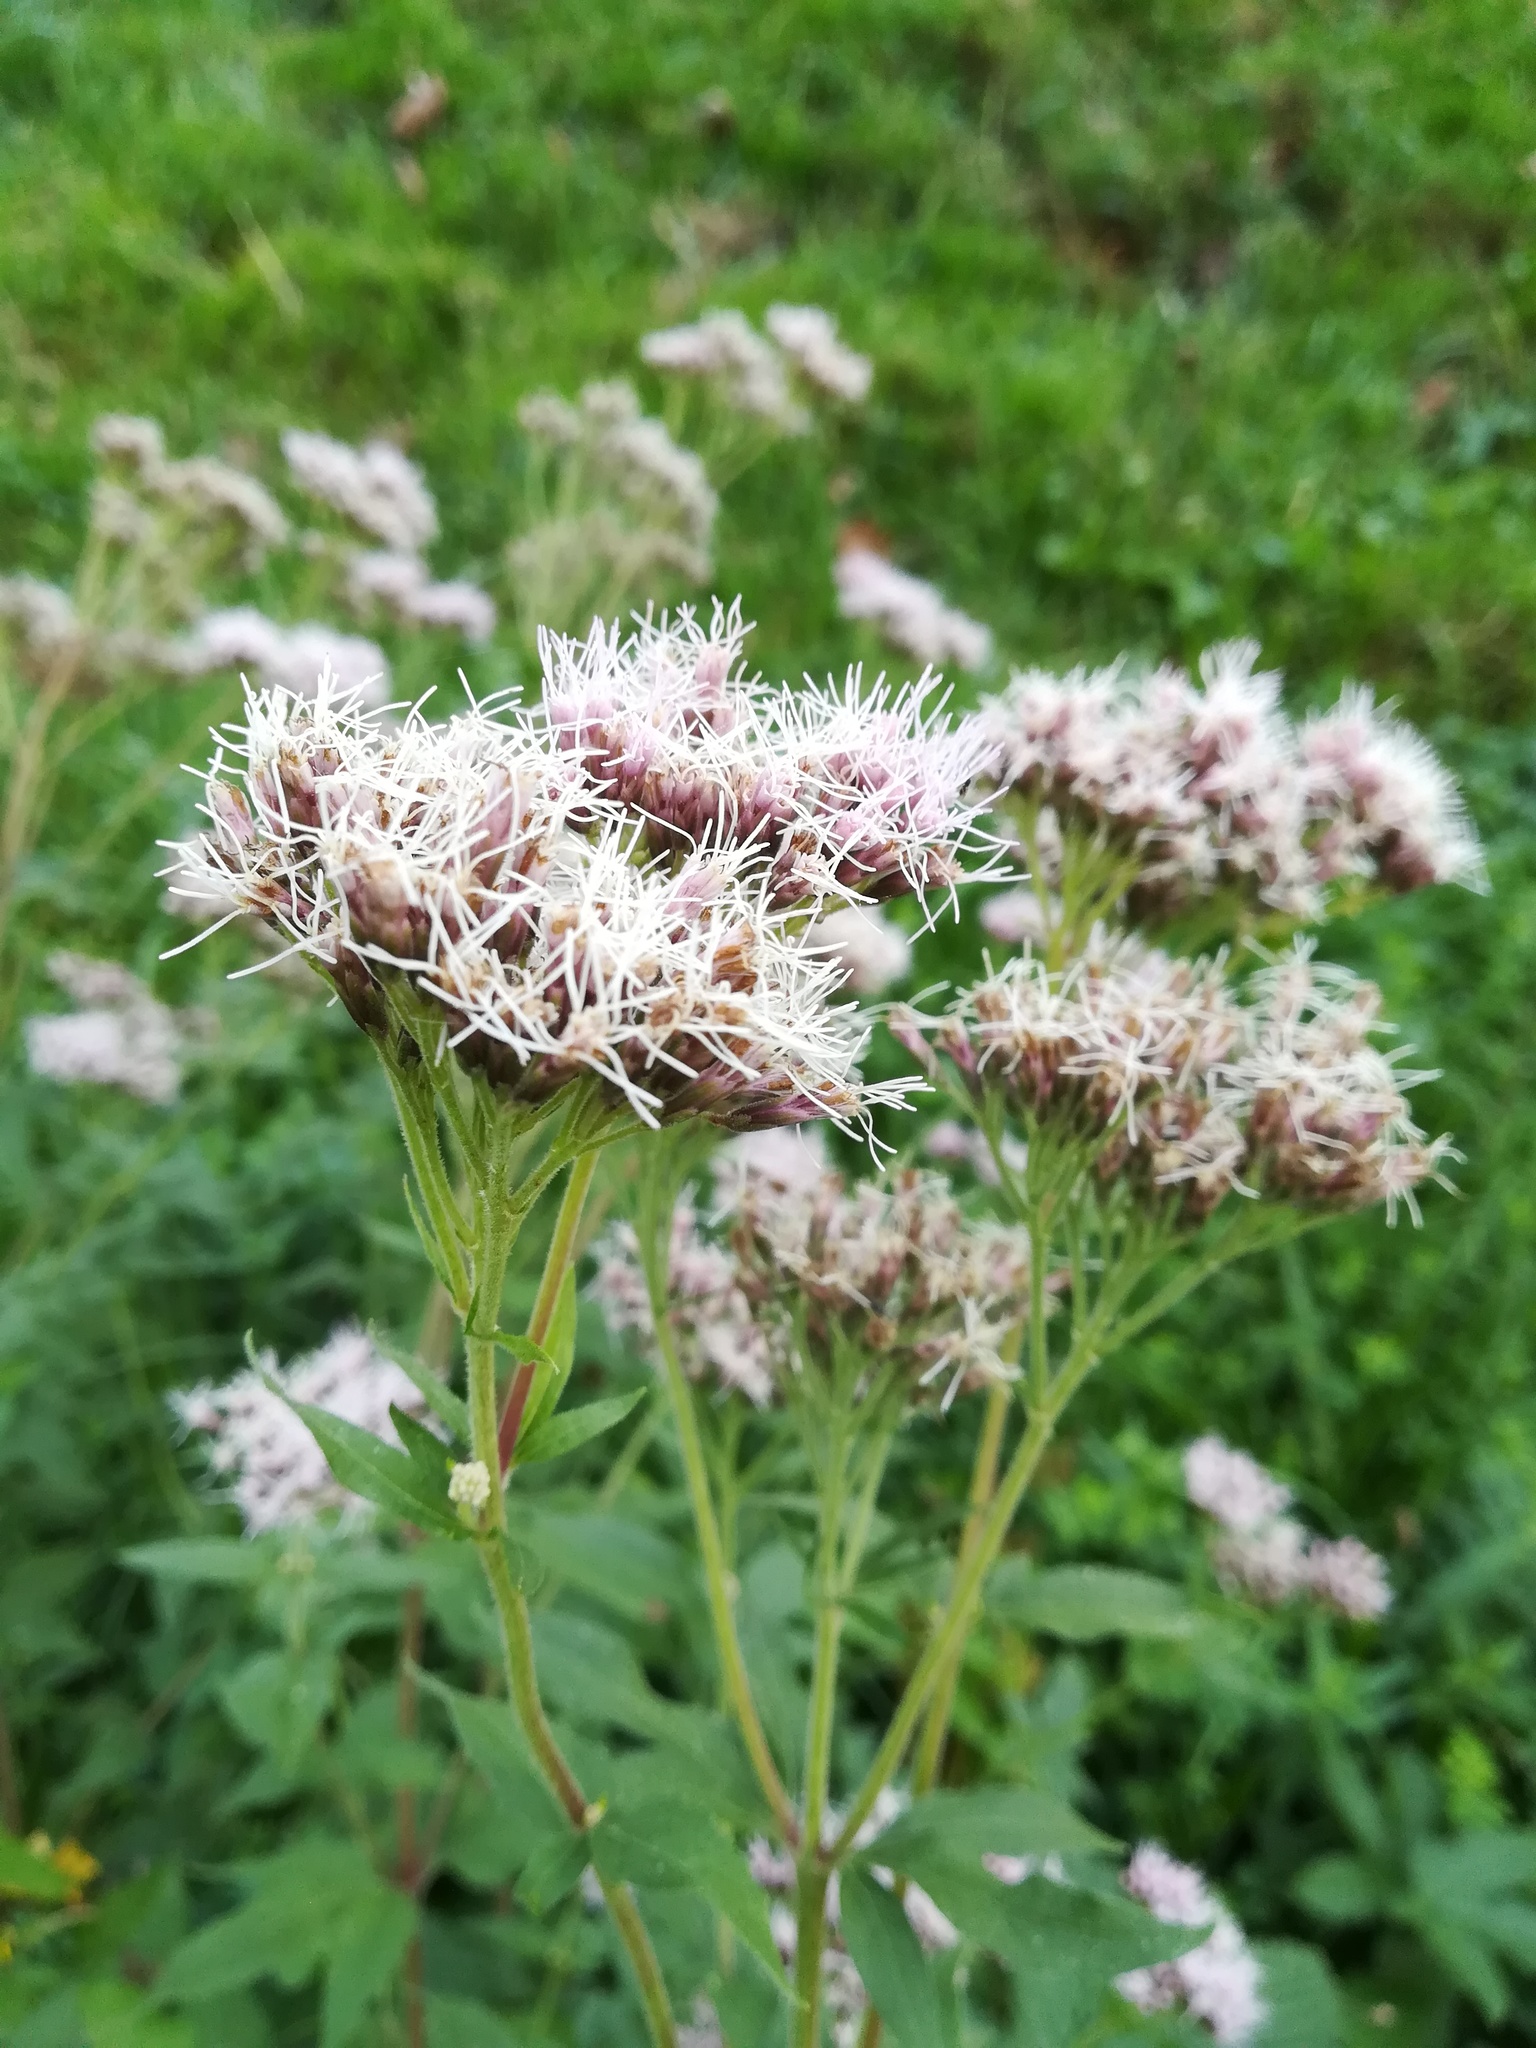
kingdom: Plantae
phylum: Tracheophyta
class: Magnoliopsida
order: Asterales
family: Asteraceae
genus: Eupatorium
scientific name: Eupatorium cannabinum
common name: Hemp-agrimony
